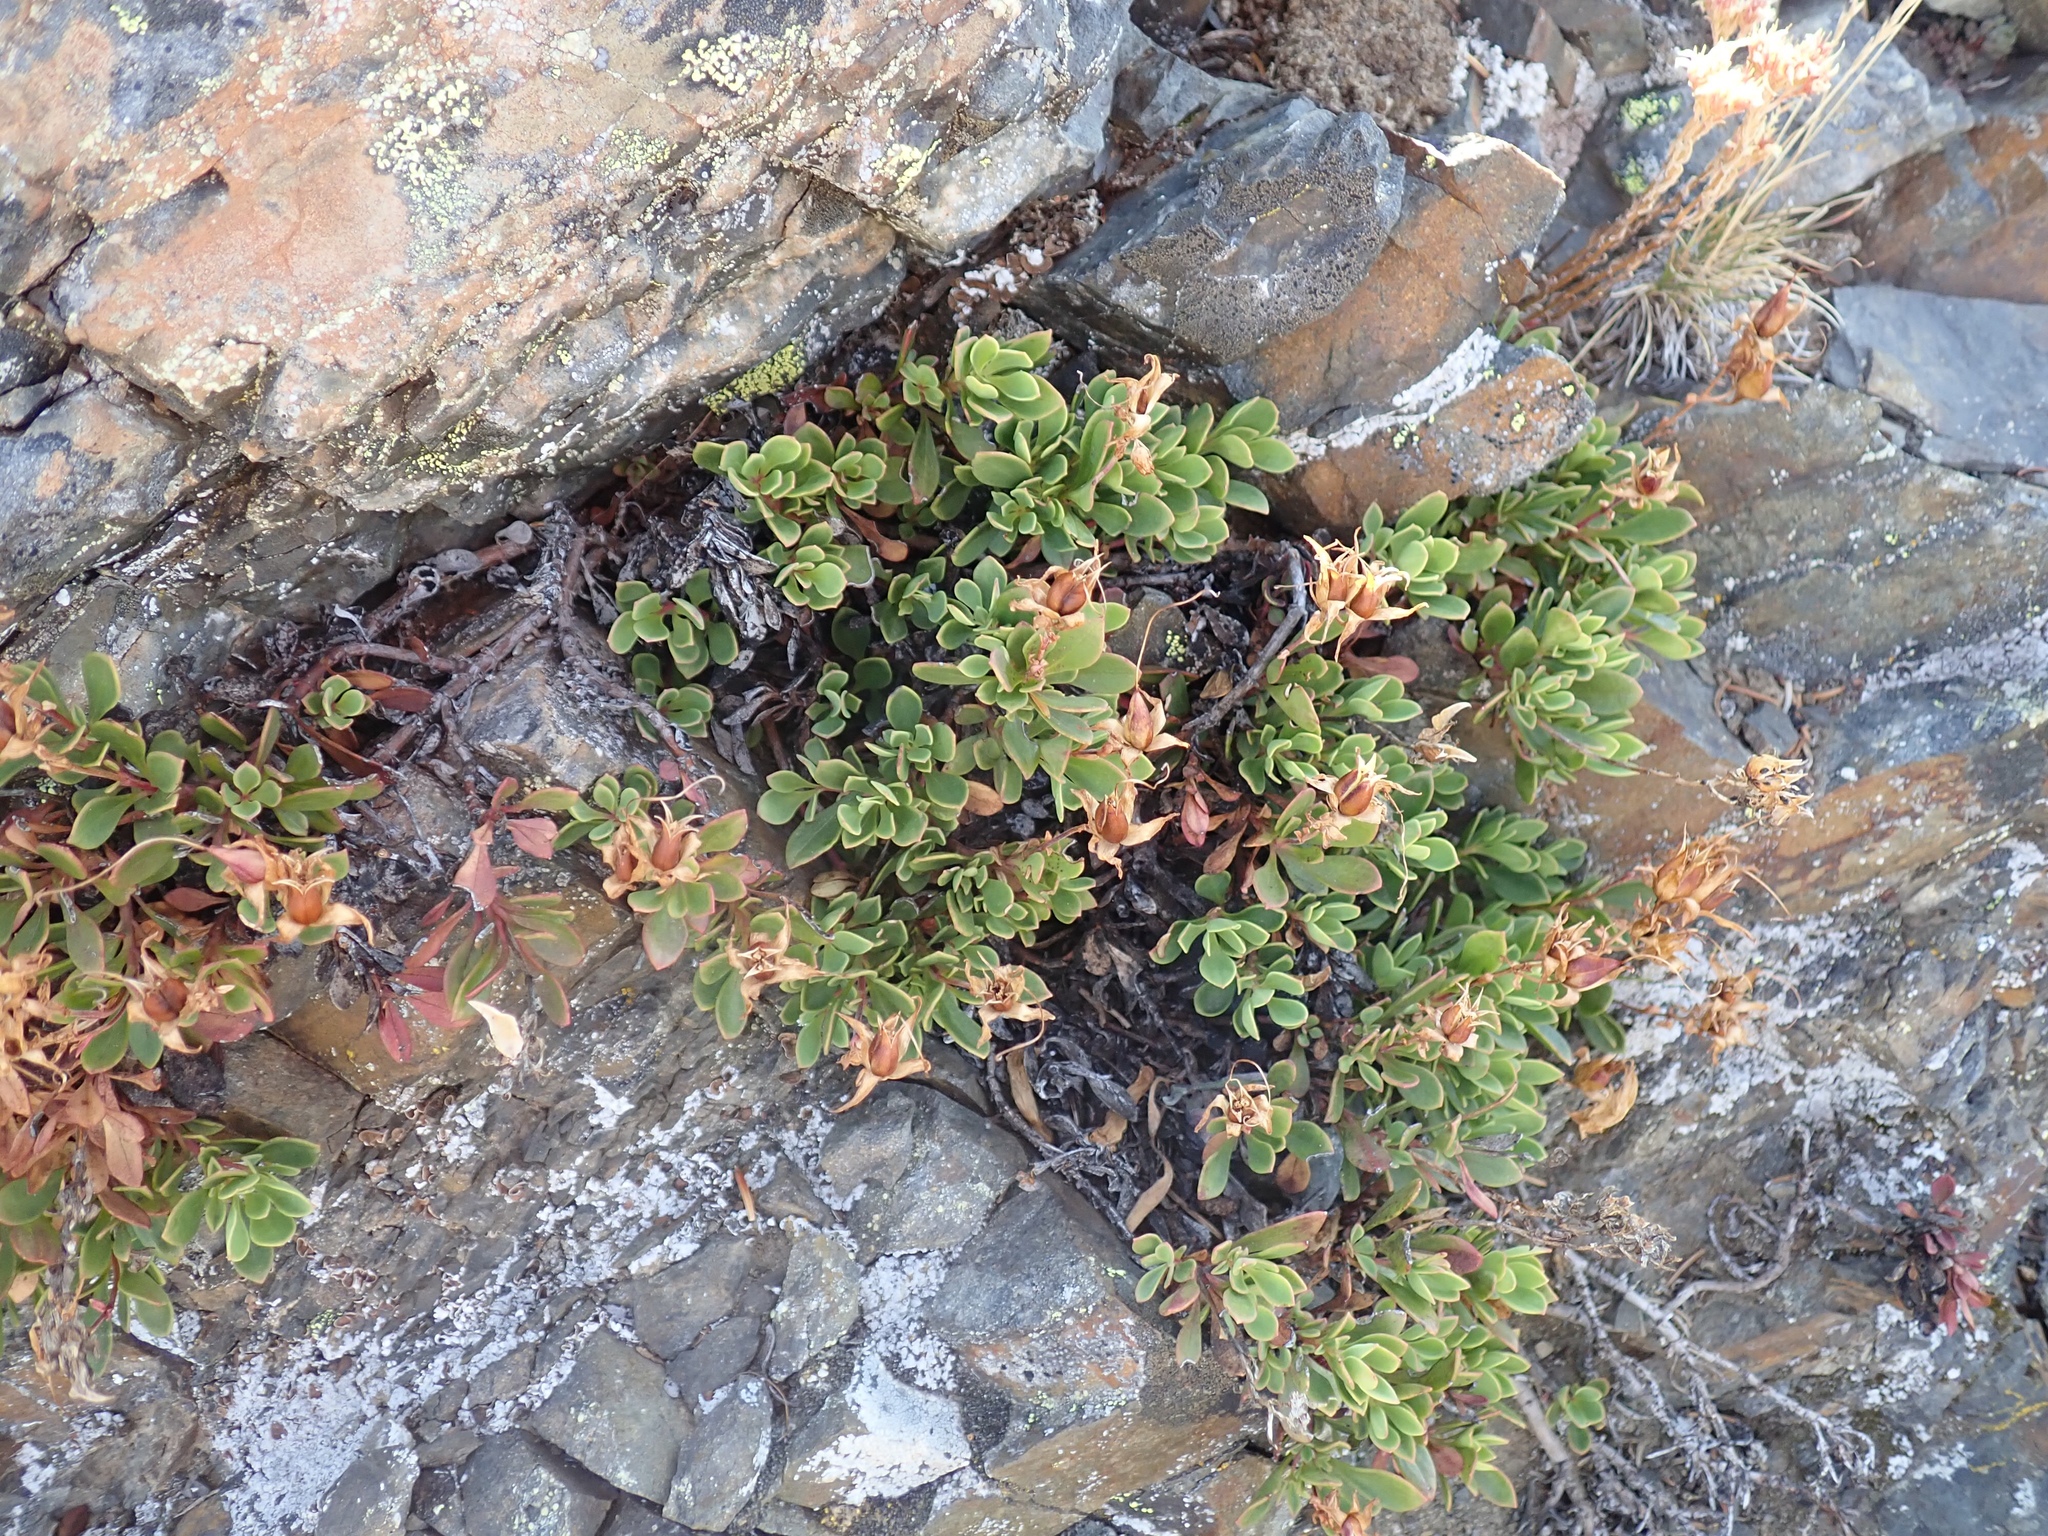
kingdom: Plantae
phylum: Tracheophyta
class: Magnoliopsida
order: Lamiales
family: Plantaginaceae
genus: Penstemon
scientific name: Penstemon davidsonii
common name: Davidson's penstemon
